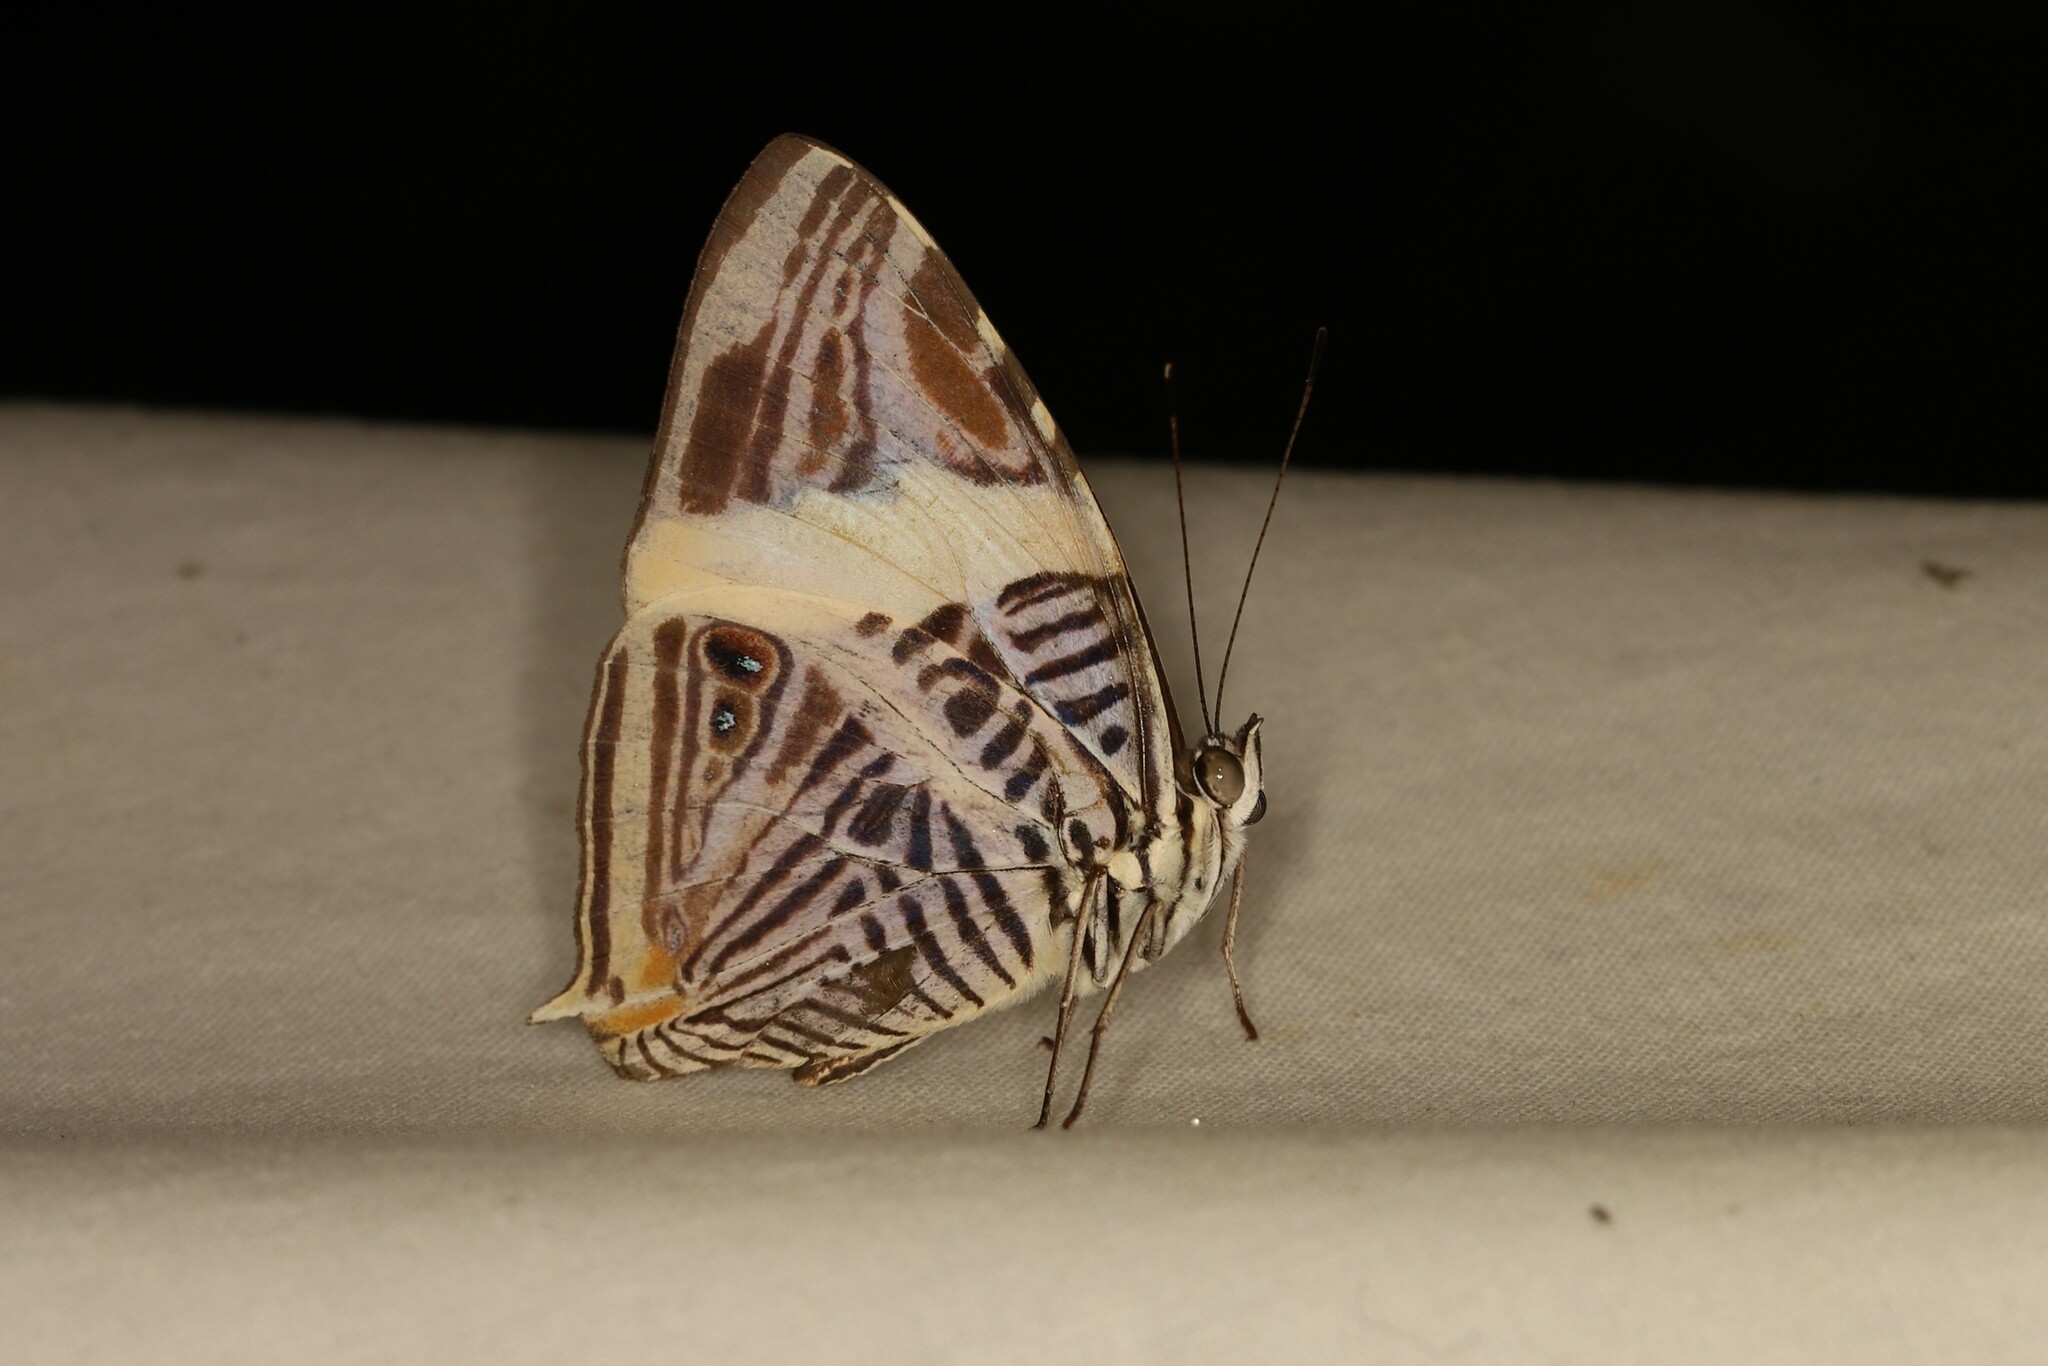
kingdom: Animalia
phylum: Arthropoda
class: Insecta
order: Lepidoptera
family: Nymphalidae
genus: Colobura
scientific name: Colobura dirce
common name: Dirce beauty
